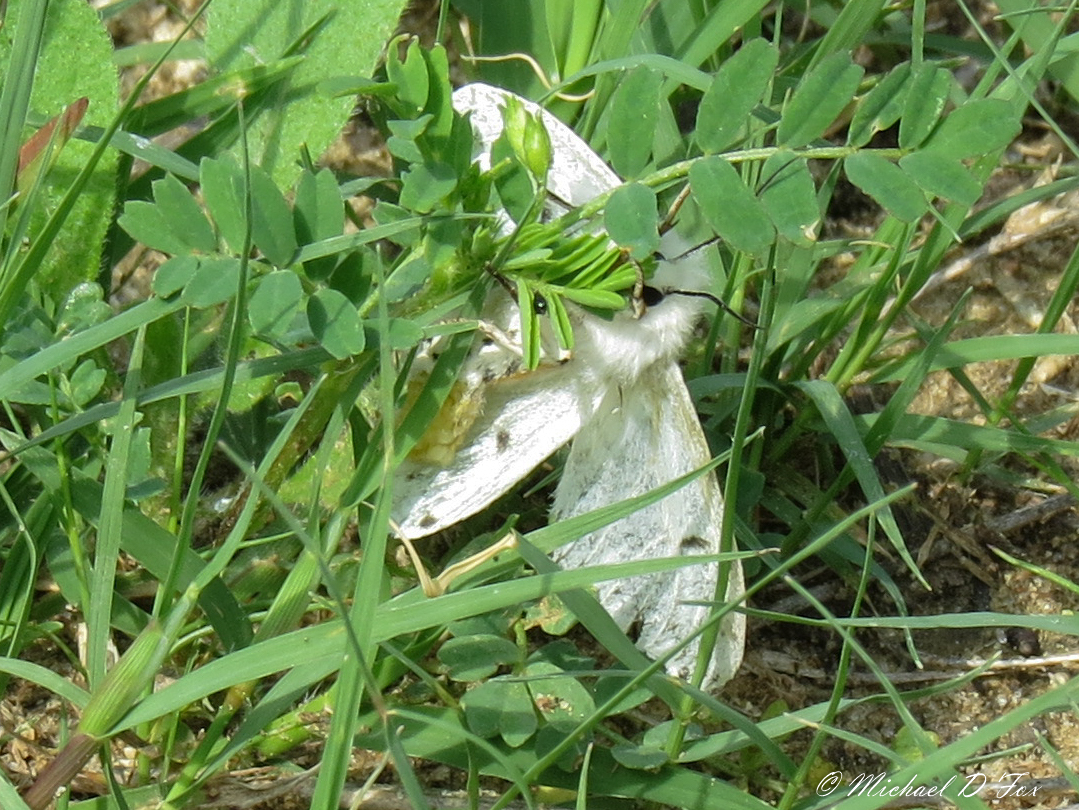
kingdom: Animalia
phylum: Arthropoda
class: Insecta
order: Lepidoptera
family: Erebidae
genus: Spilosoma
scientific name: Spilosoma virginica
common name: Virginia tiger moth
